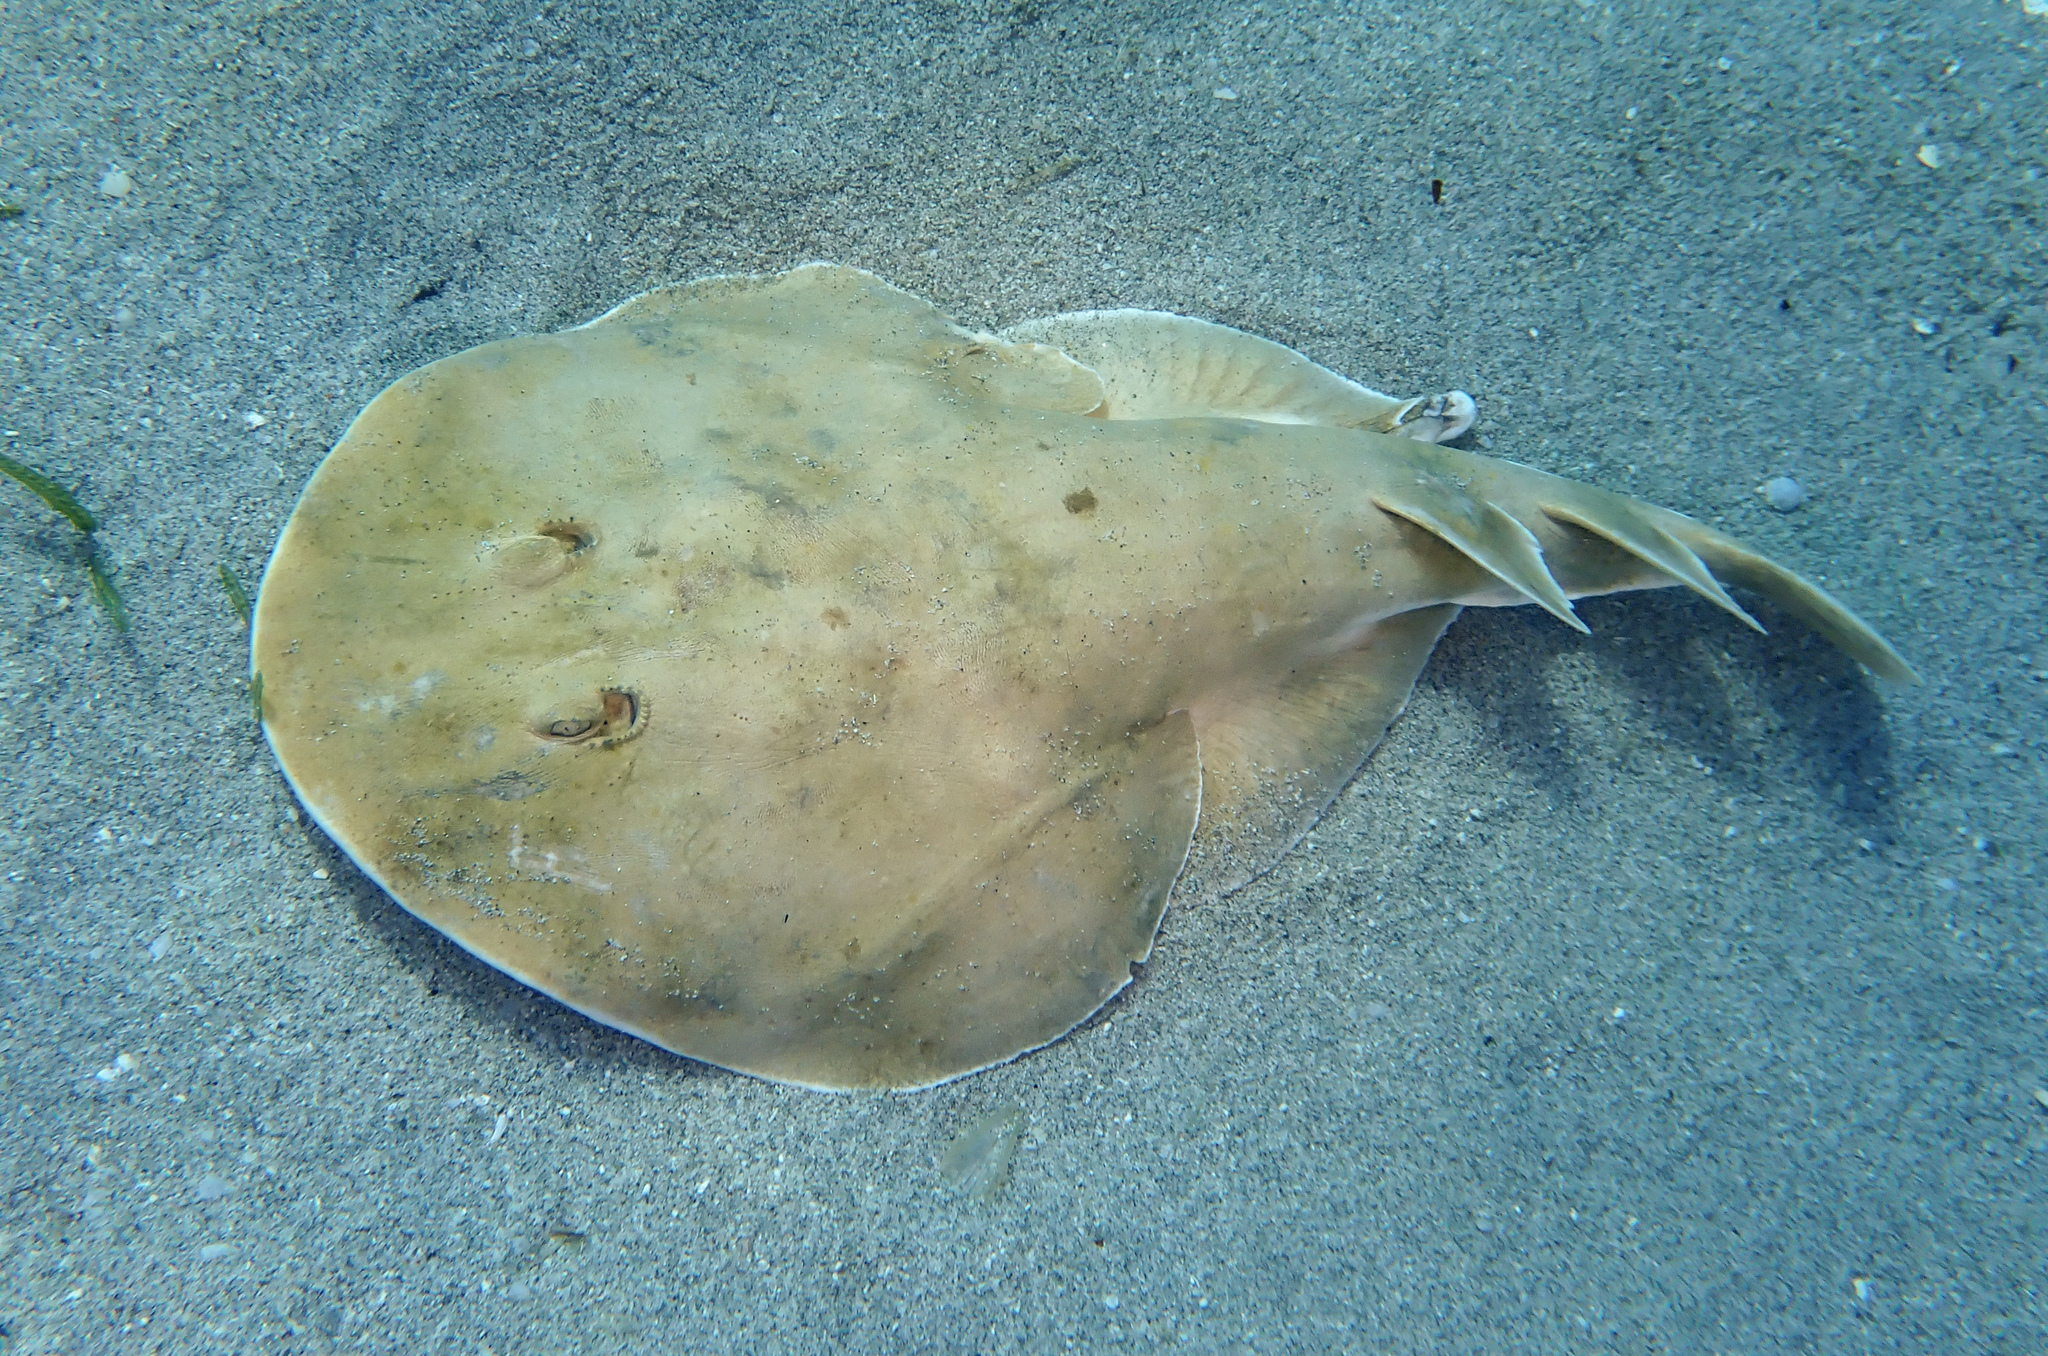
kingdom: Animalia
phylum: Chordata
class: Elasmobranchii
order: Torpediniformes
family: Narcinidae
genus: Narcine
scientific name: Narcine bancroftii
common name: Lesser electric ray
